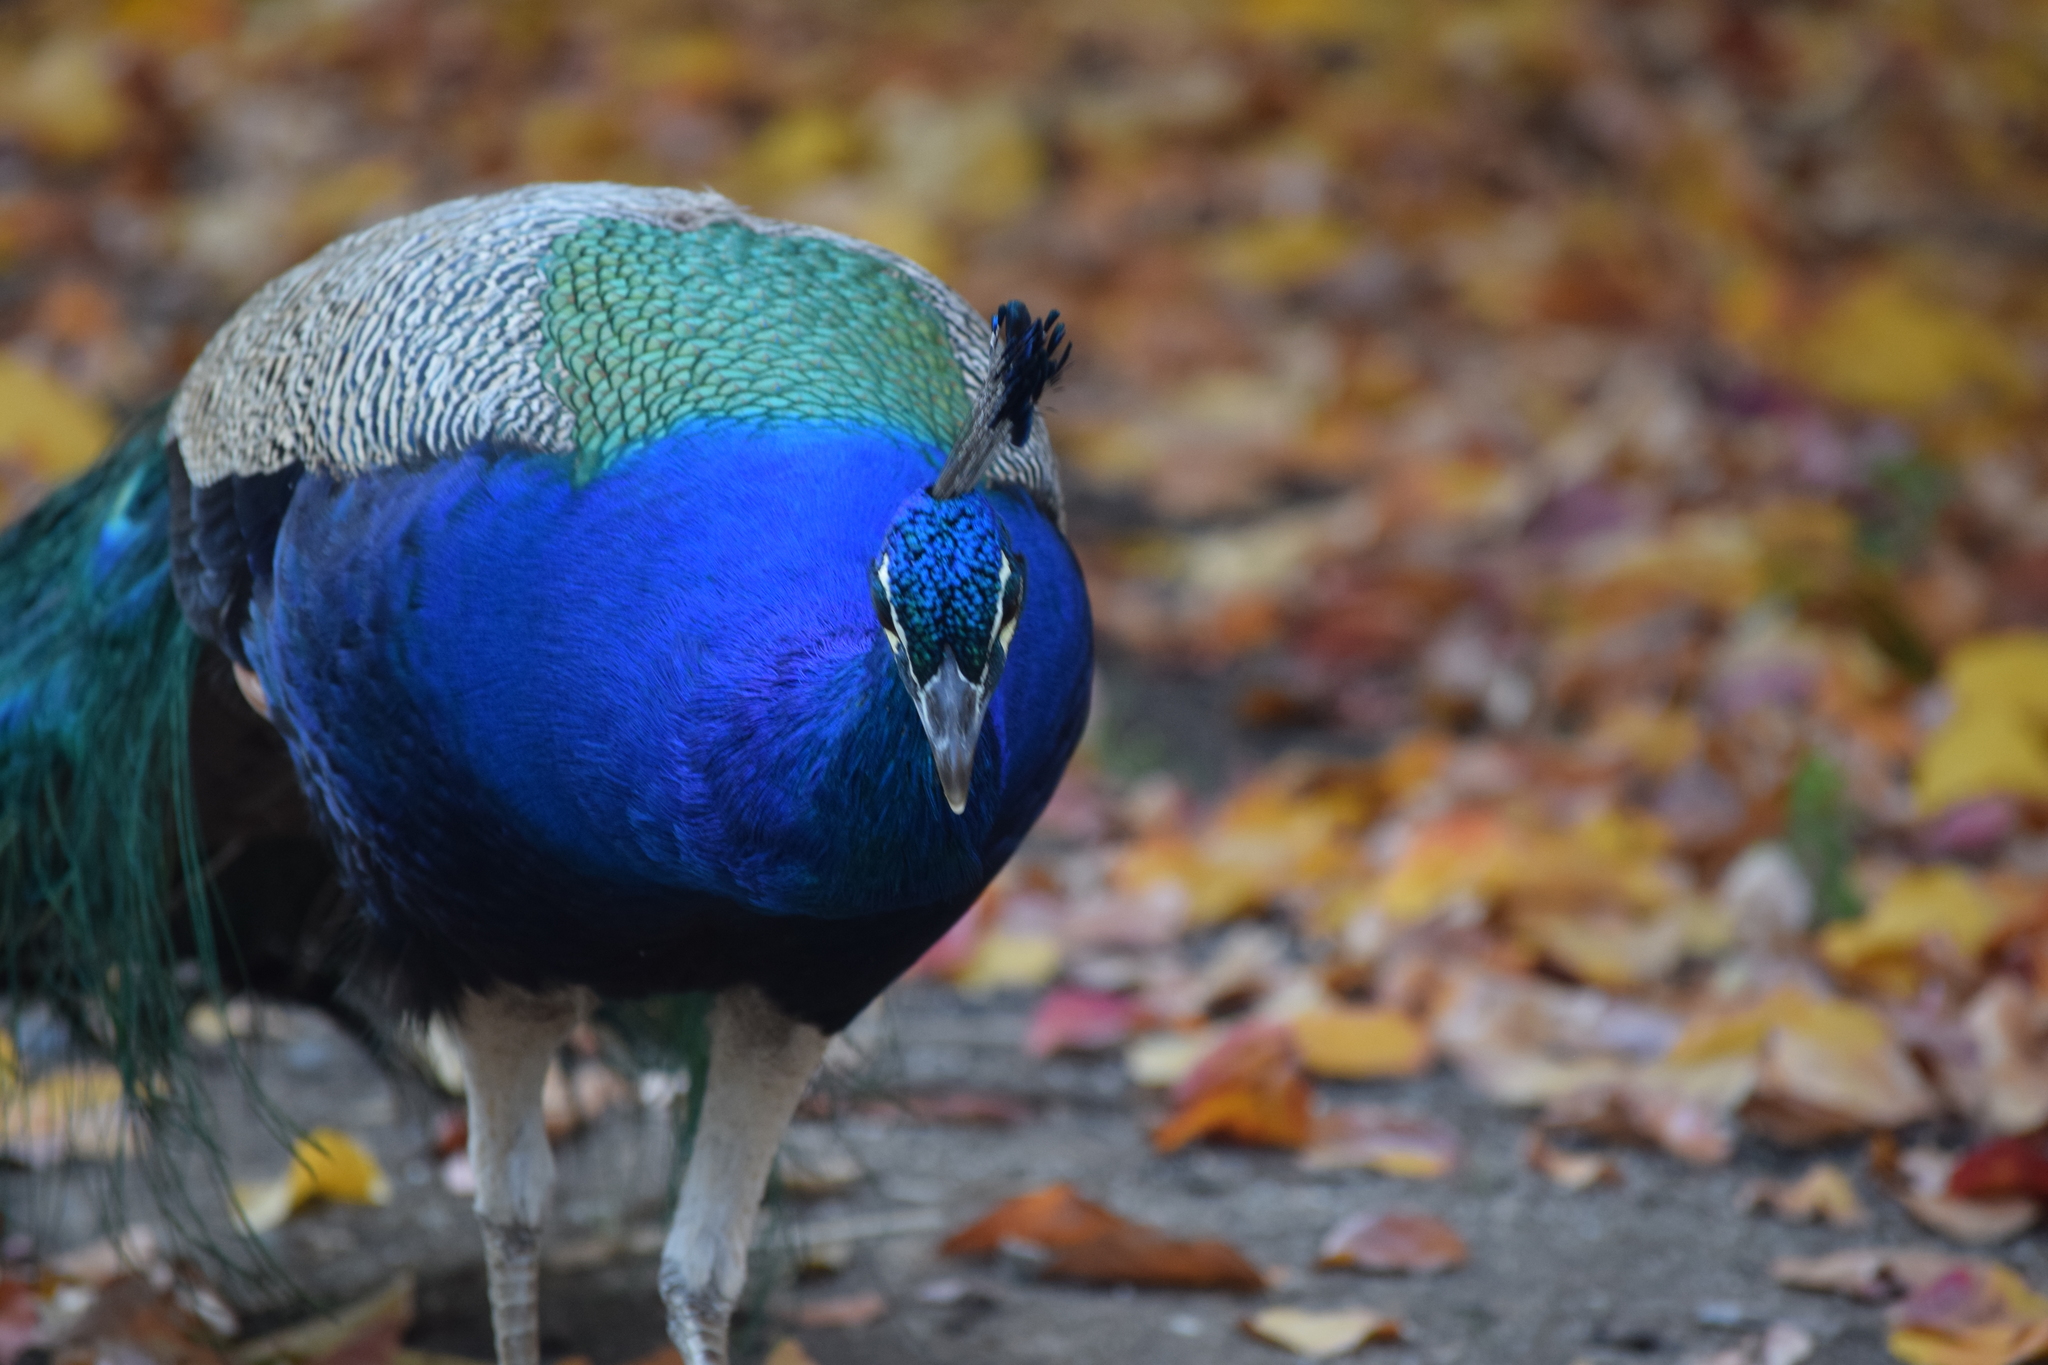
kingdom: Animalia
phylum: Chordata
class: Aves
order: Galliformes
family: Phasianidae
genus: Pavo
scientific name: Pavo cristatus
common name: Indian peafowl
